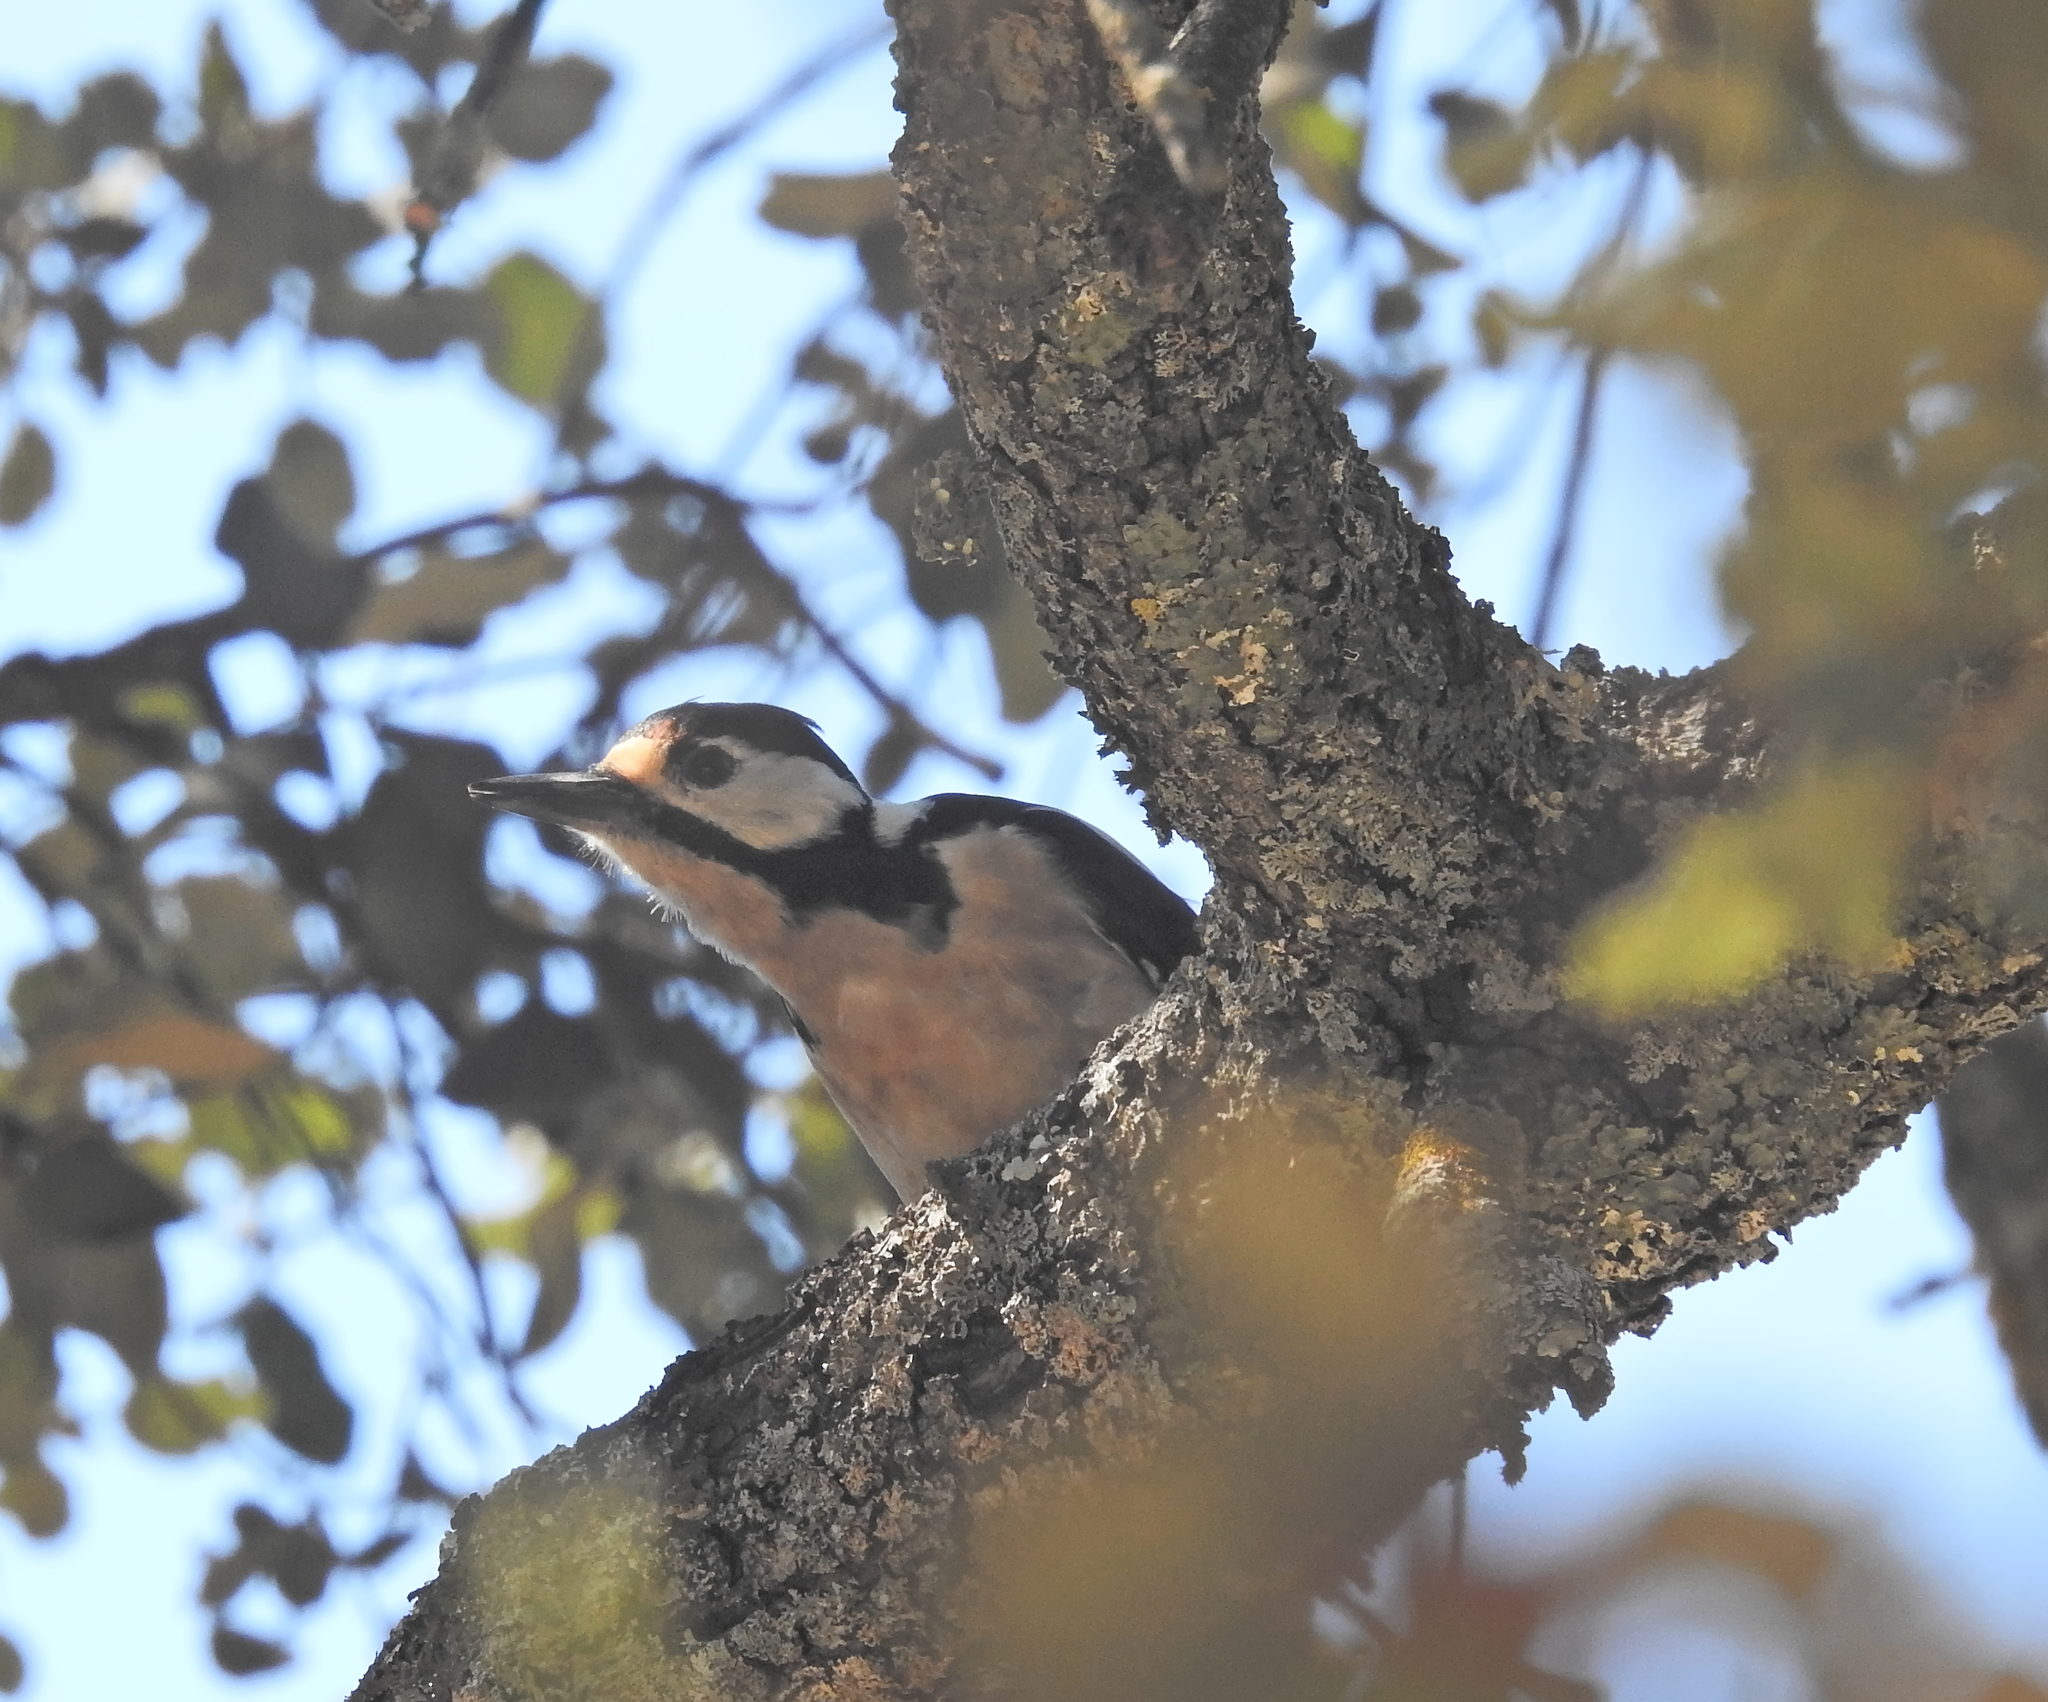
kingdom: Animalia
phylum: Chordata
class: Aves
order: Piciformes
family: Picidae
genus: Dendrocopos
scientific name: Dendrocopos major
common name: Great spotted woodpecker
